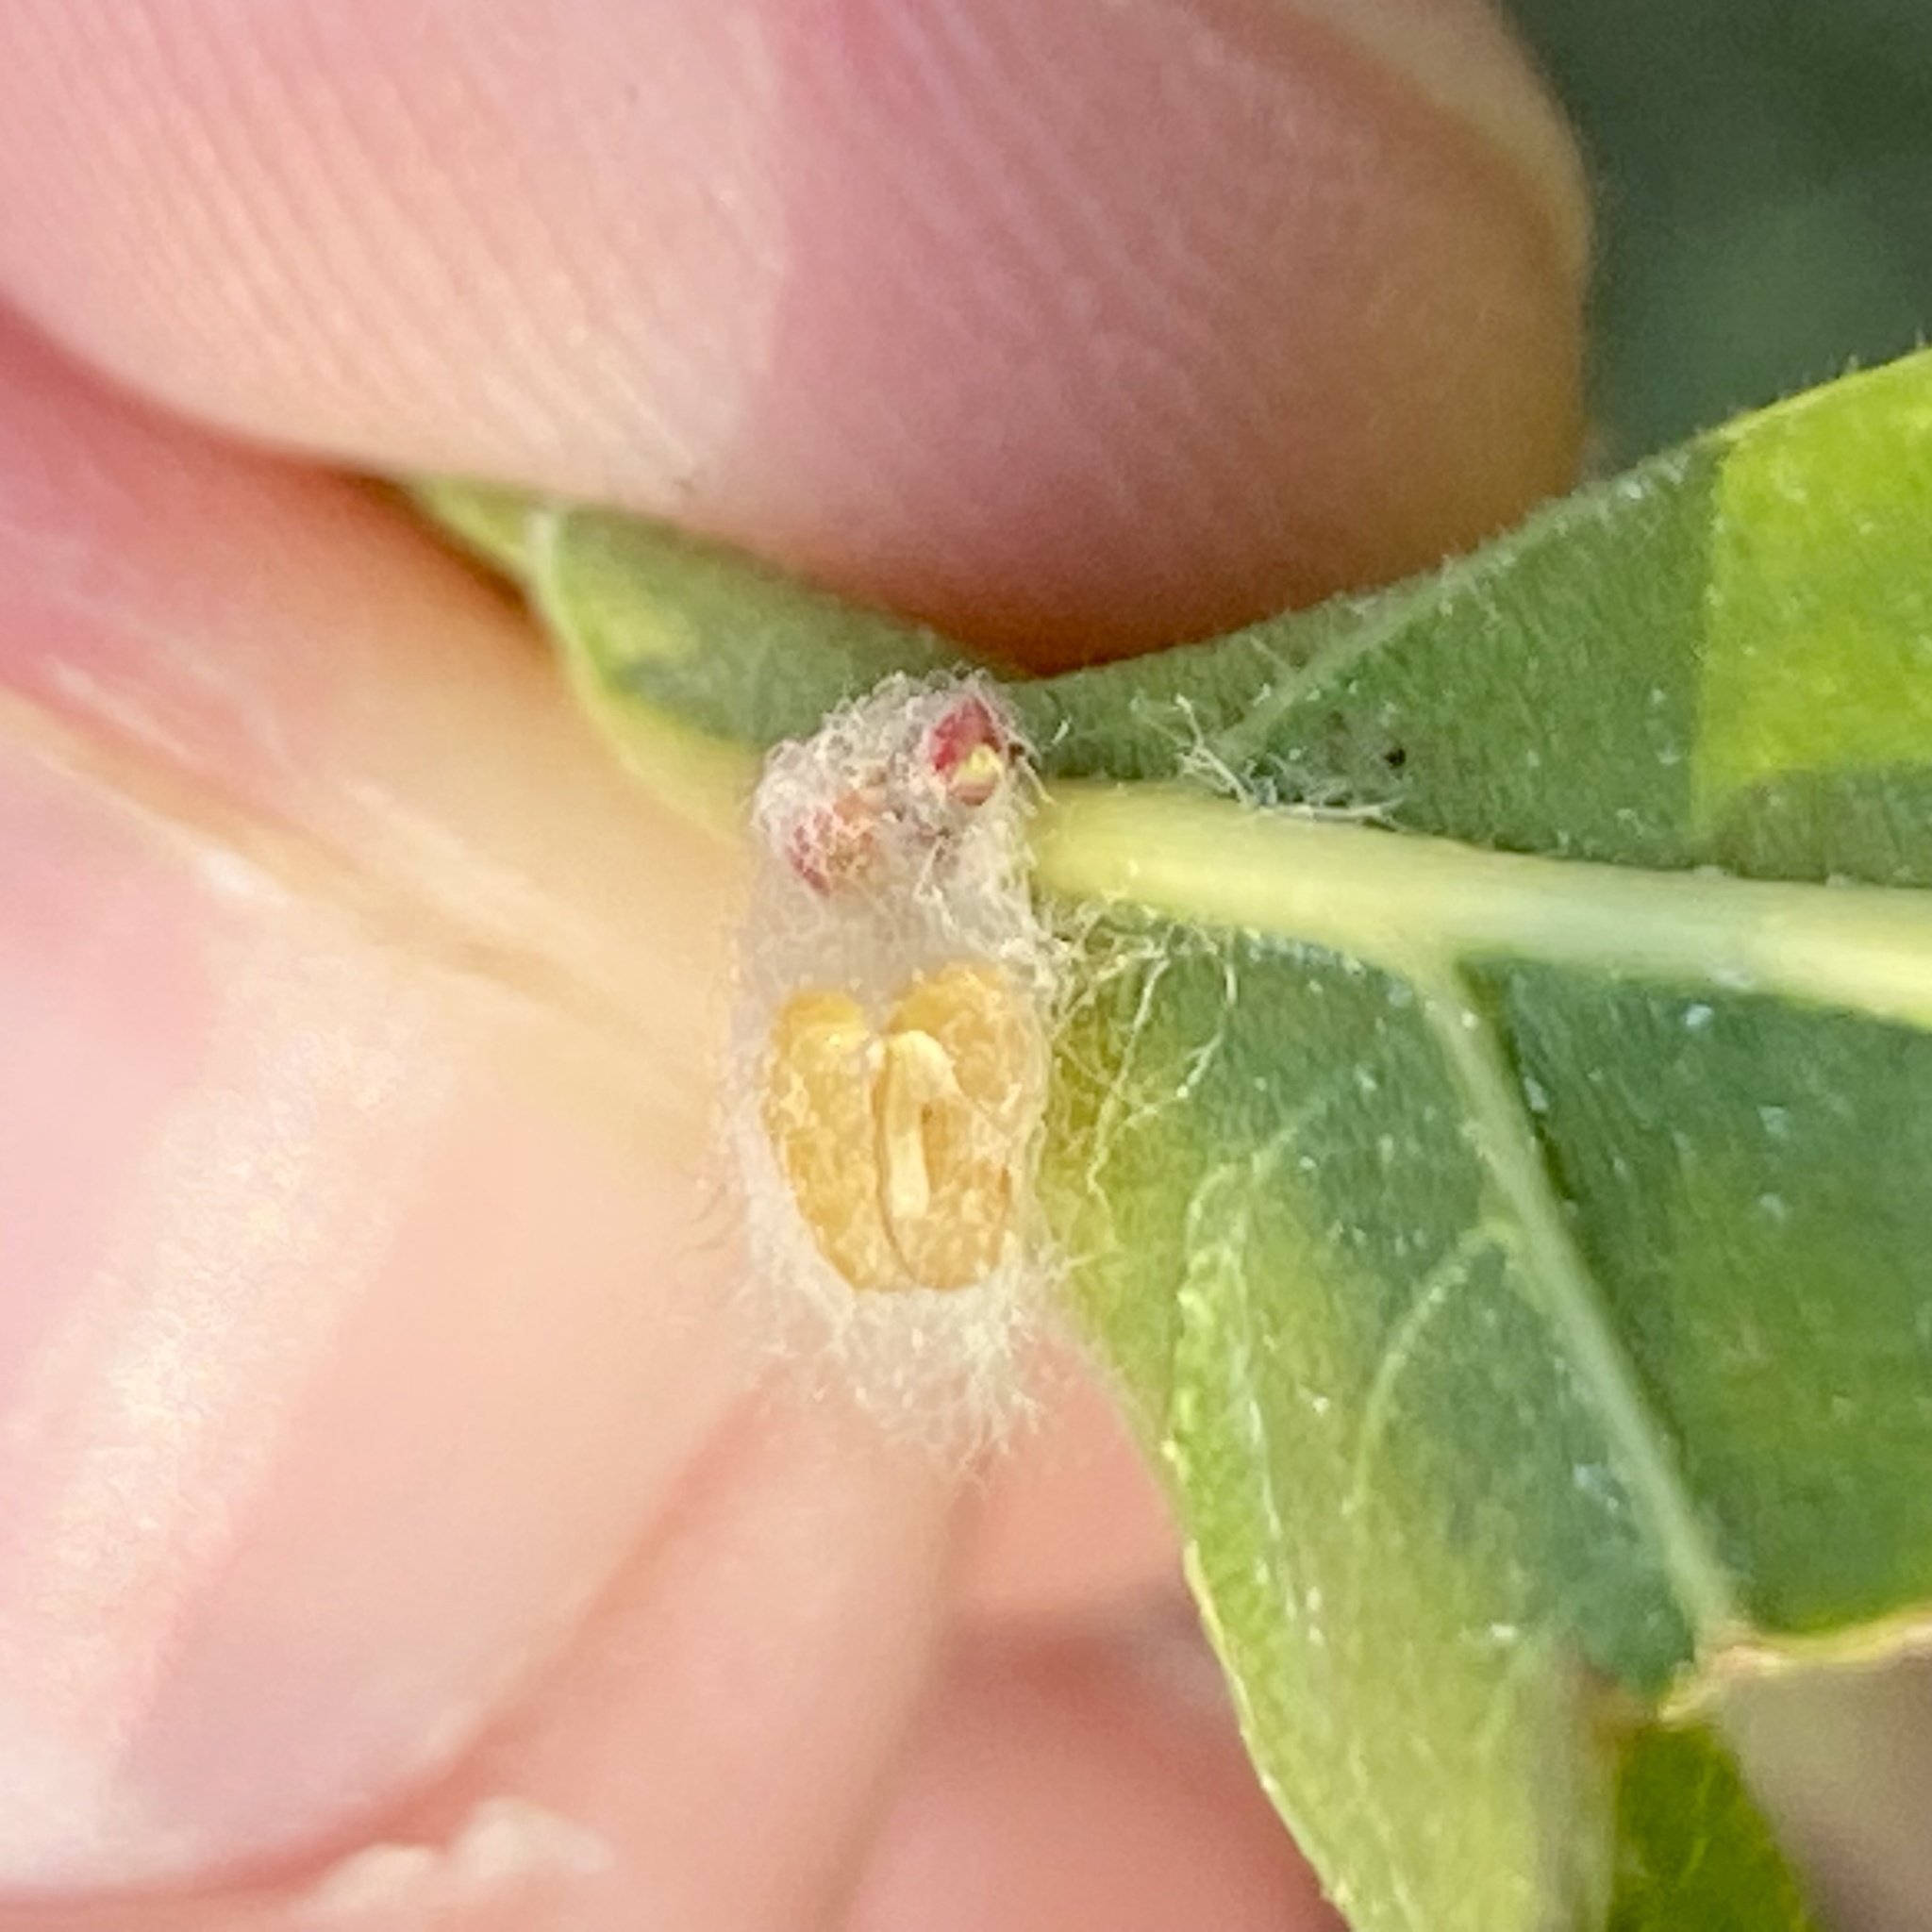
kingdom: Animalia
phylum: Arthropoda
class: Insecta
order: Hymenoptera
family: Cynipidae
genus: Andricus
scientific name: Andricus Druon ignotum
